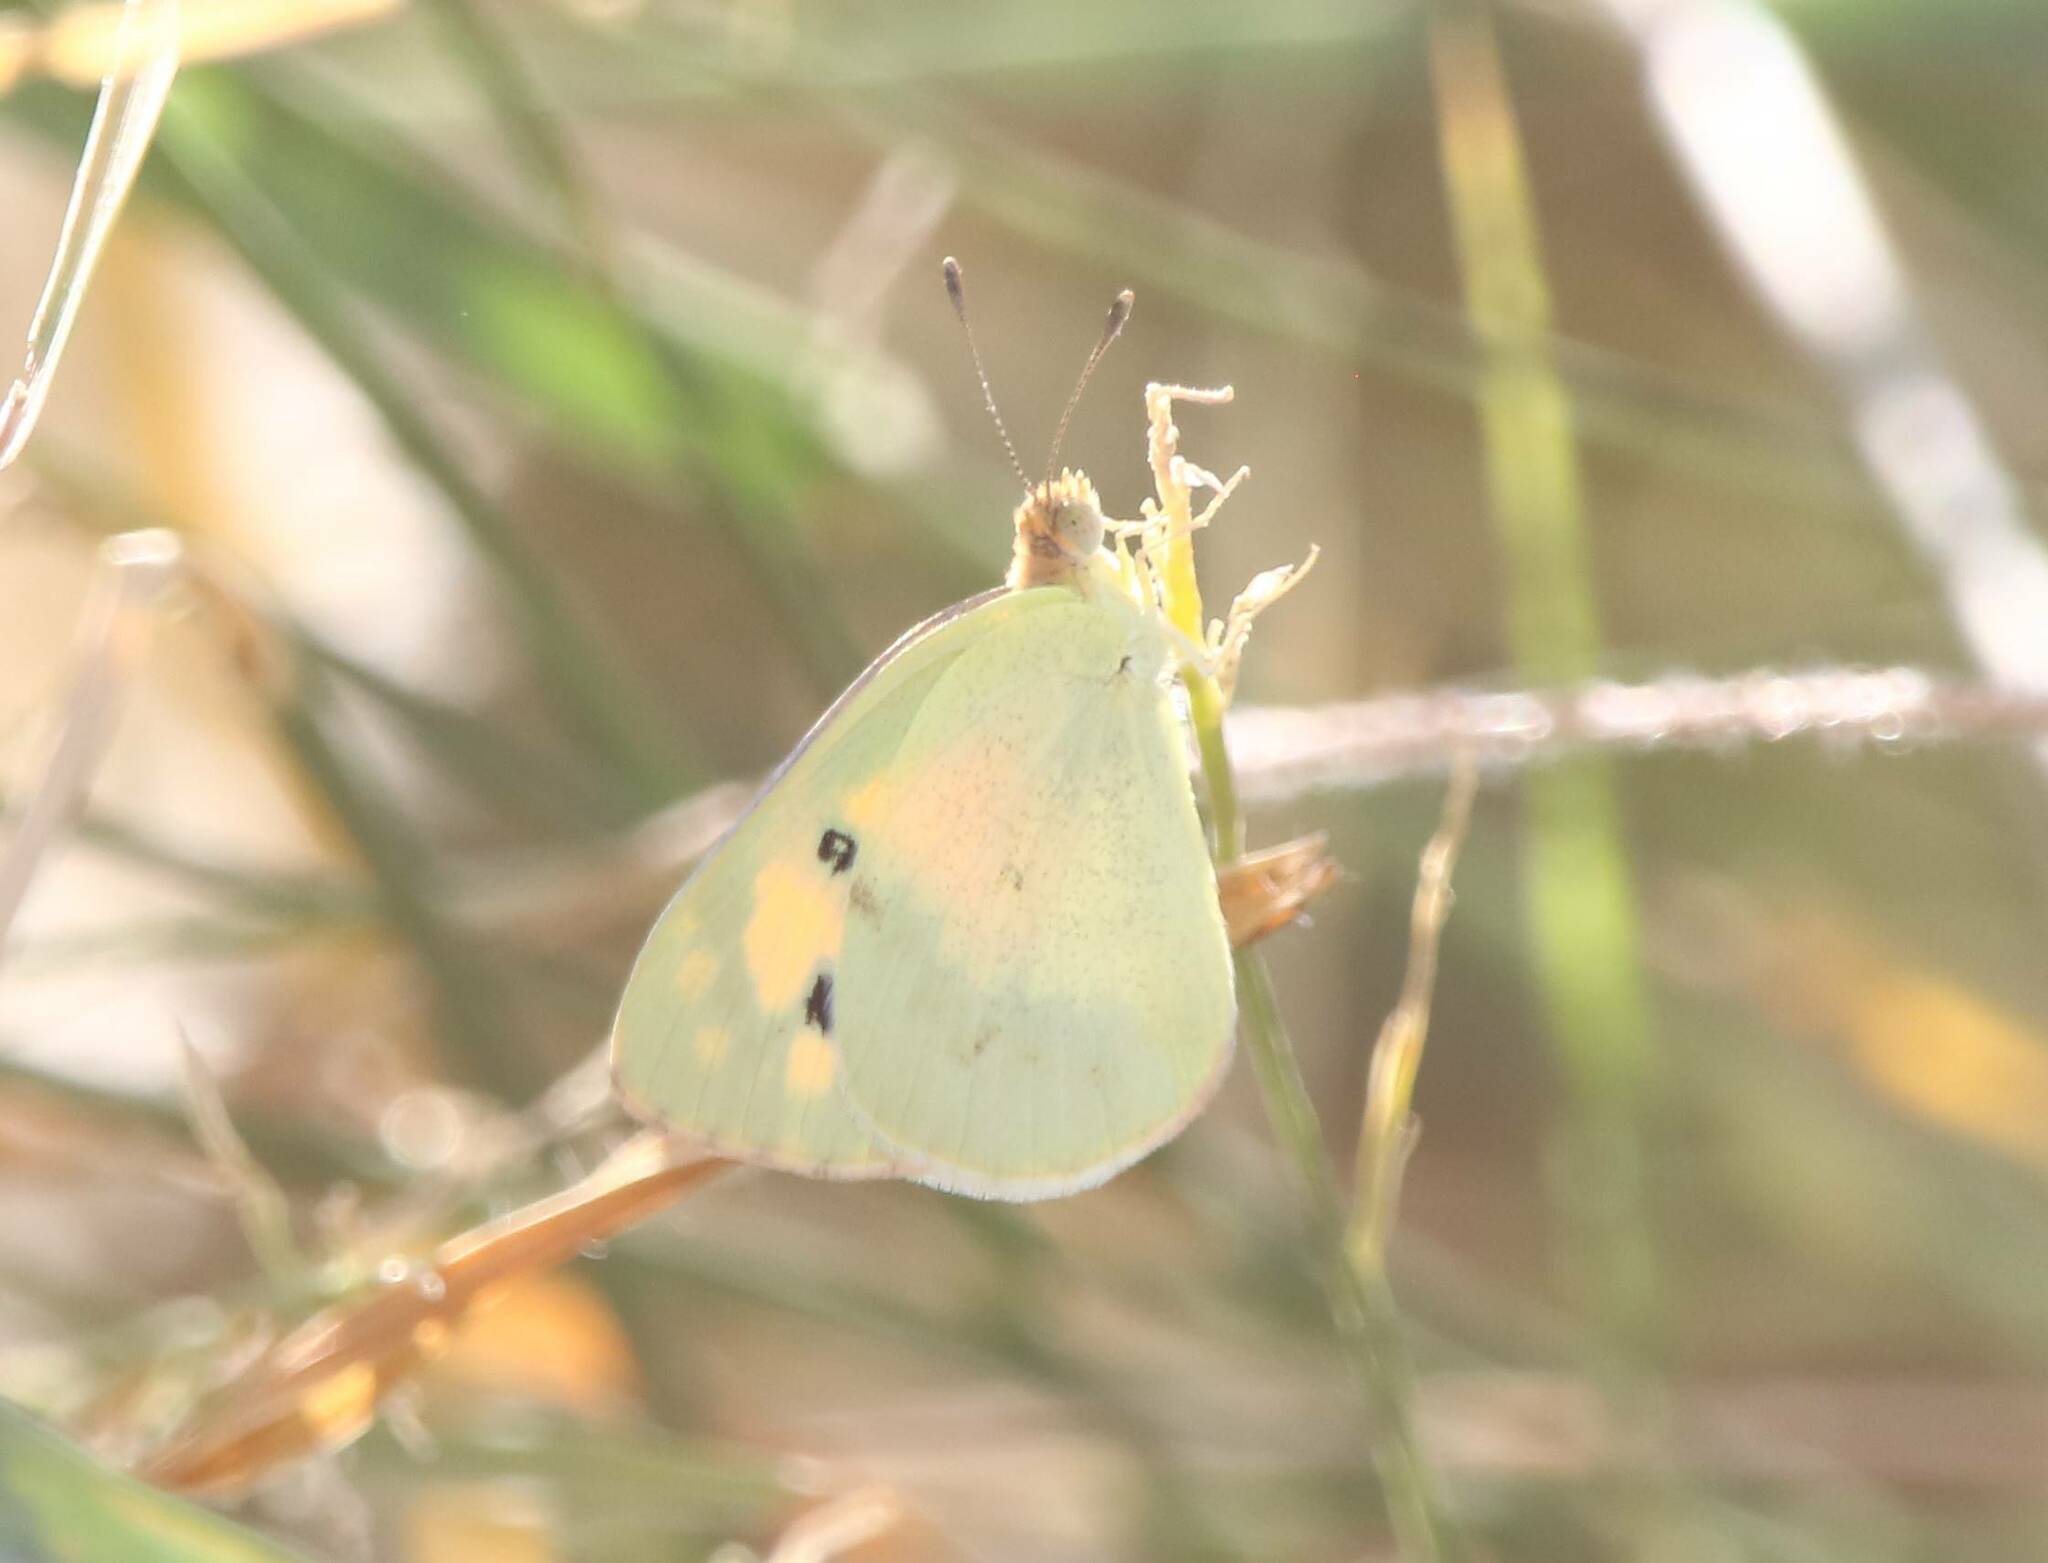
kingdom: Animalia
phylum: Arthropoda
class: Insecta
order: Lepidoptera
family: Pieridae
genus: Colotis
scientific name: Colotis phisadia
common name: Blue spotted arab
